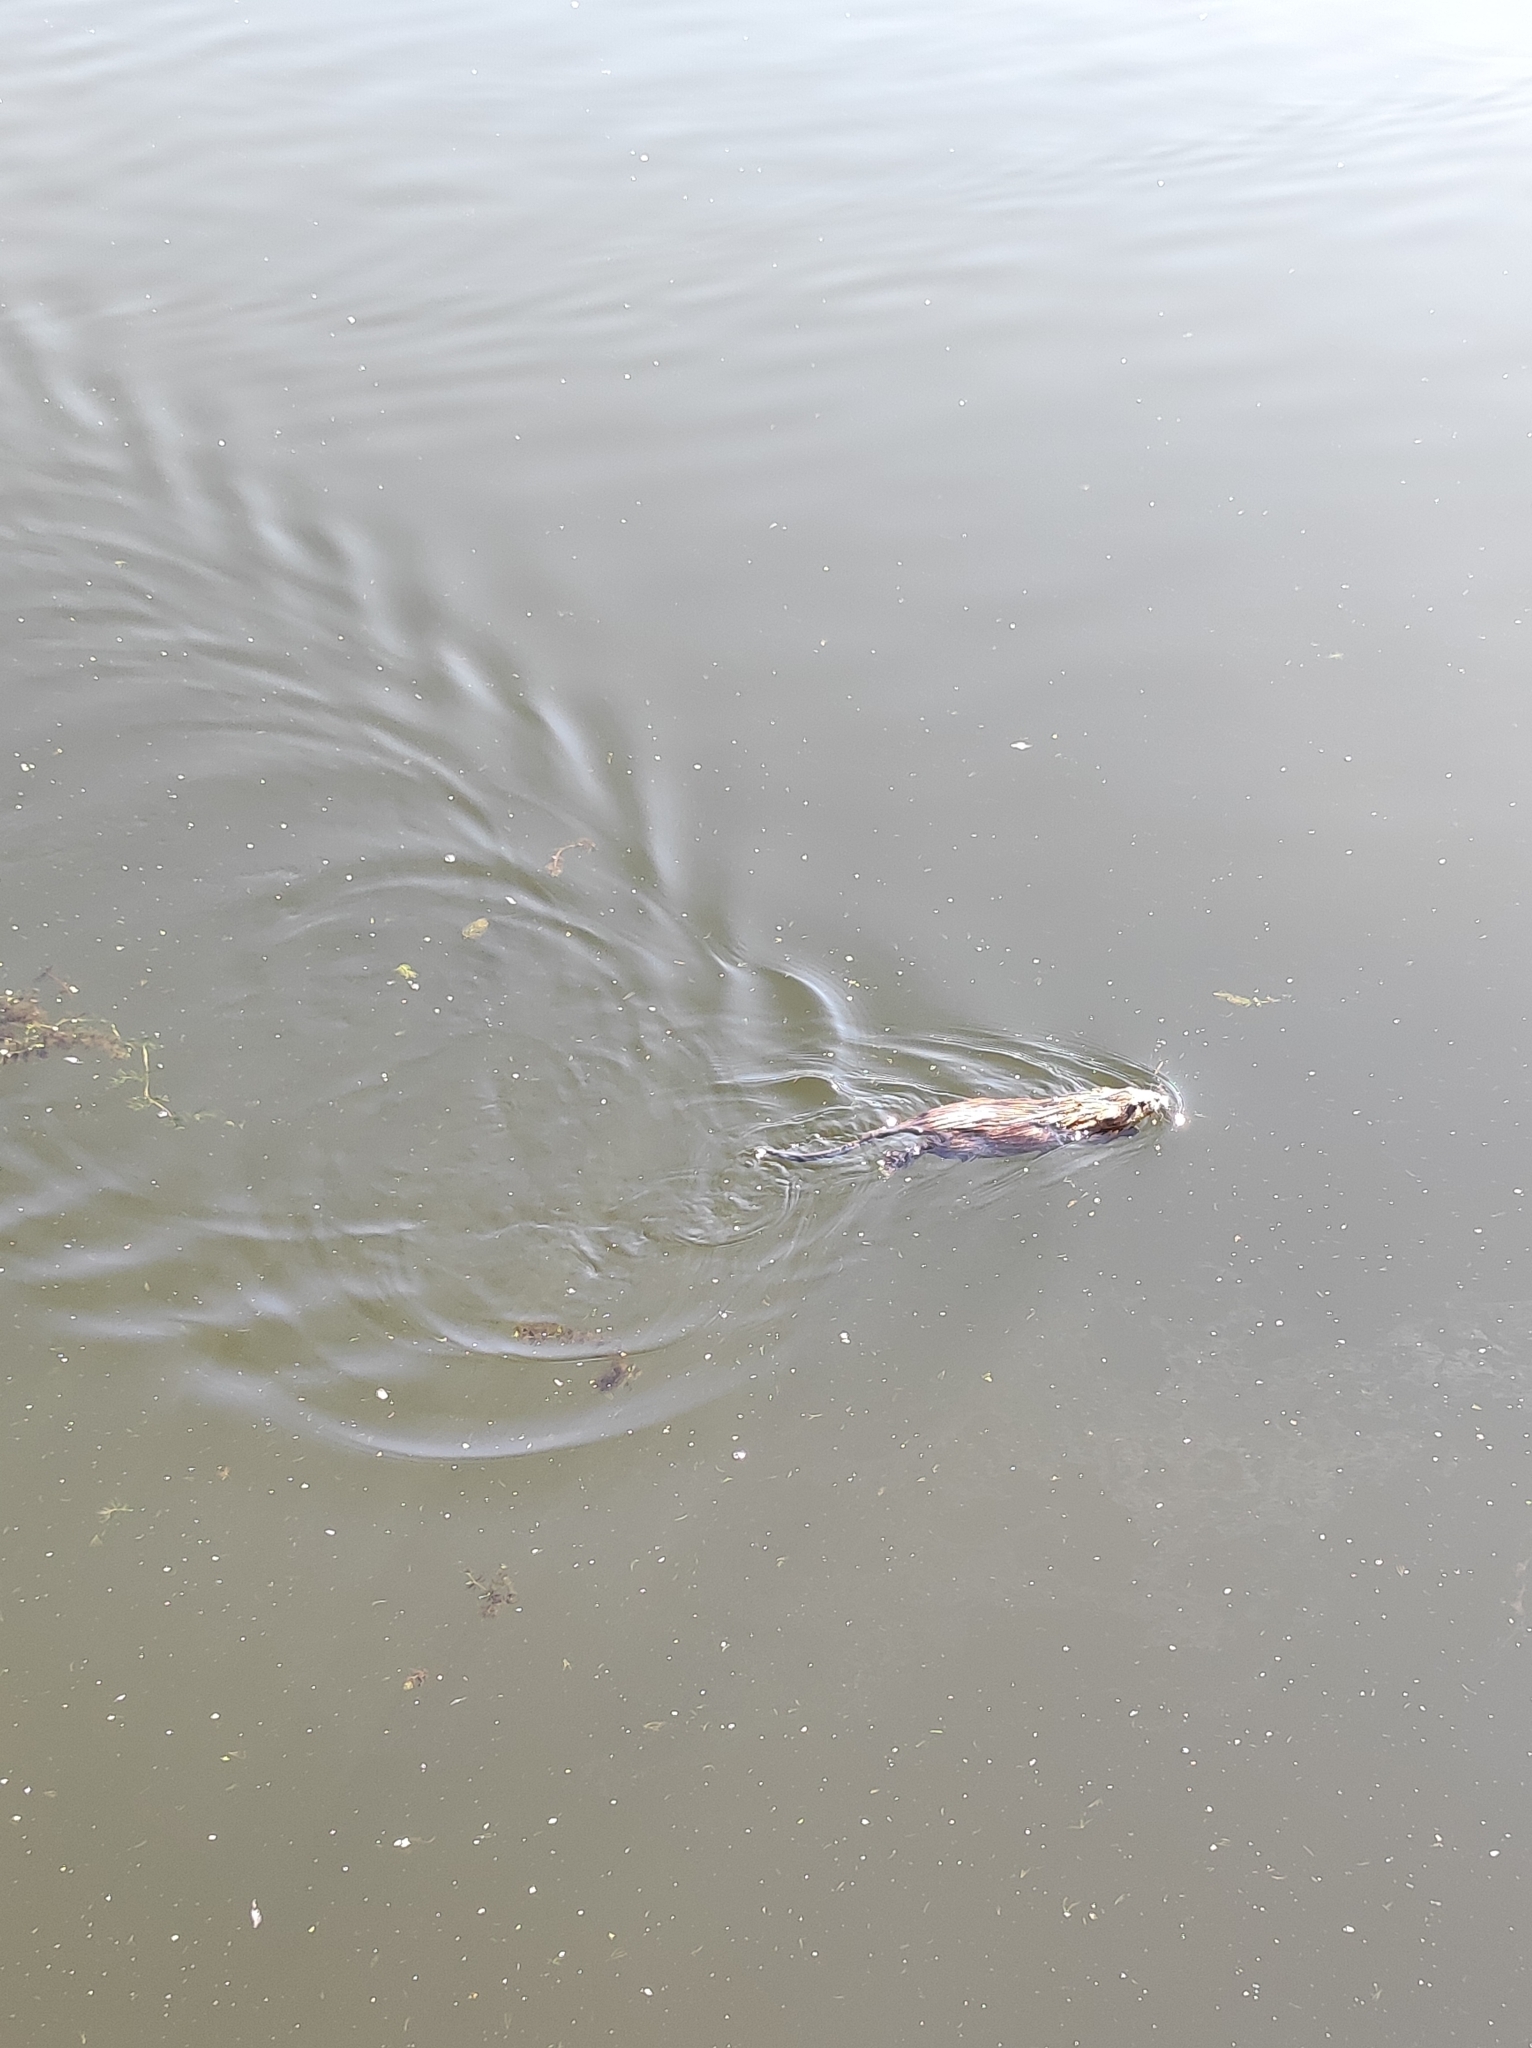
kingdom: Animalia
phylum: Chordata
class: Mammalia
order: Rodentia
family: Cricetidae
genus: Ondatra
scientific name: Ondatra zibethicus
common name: Muskrat
